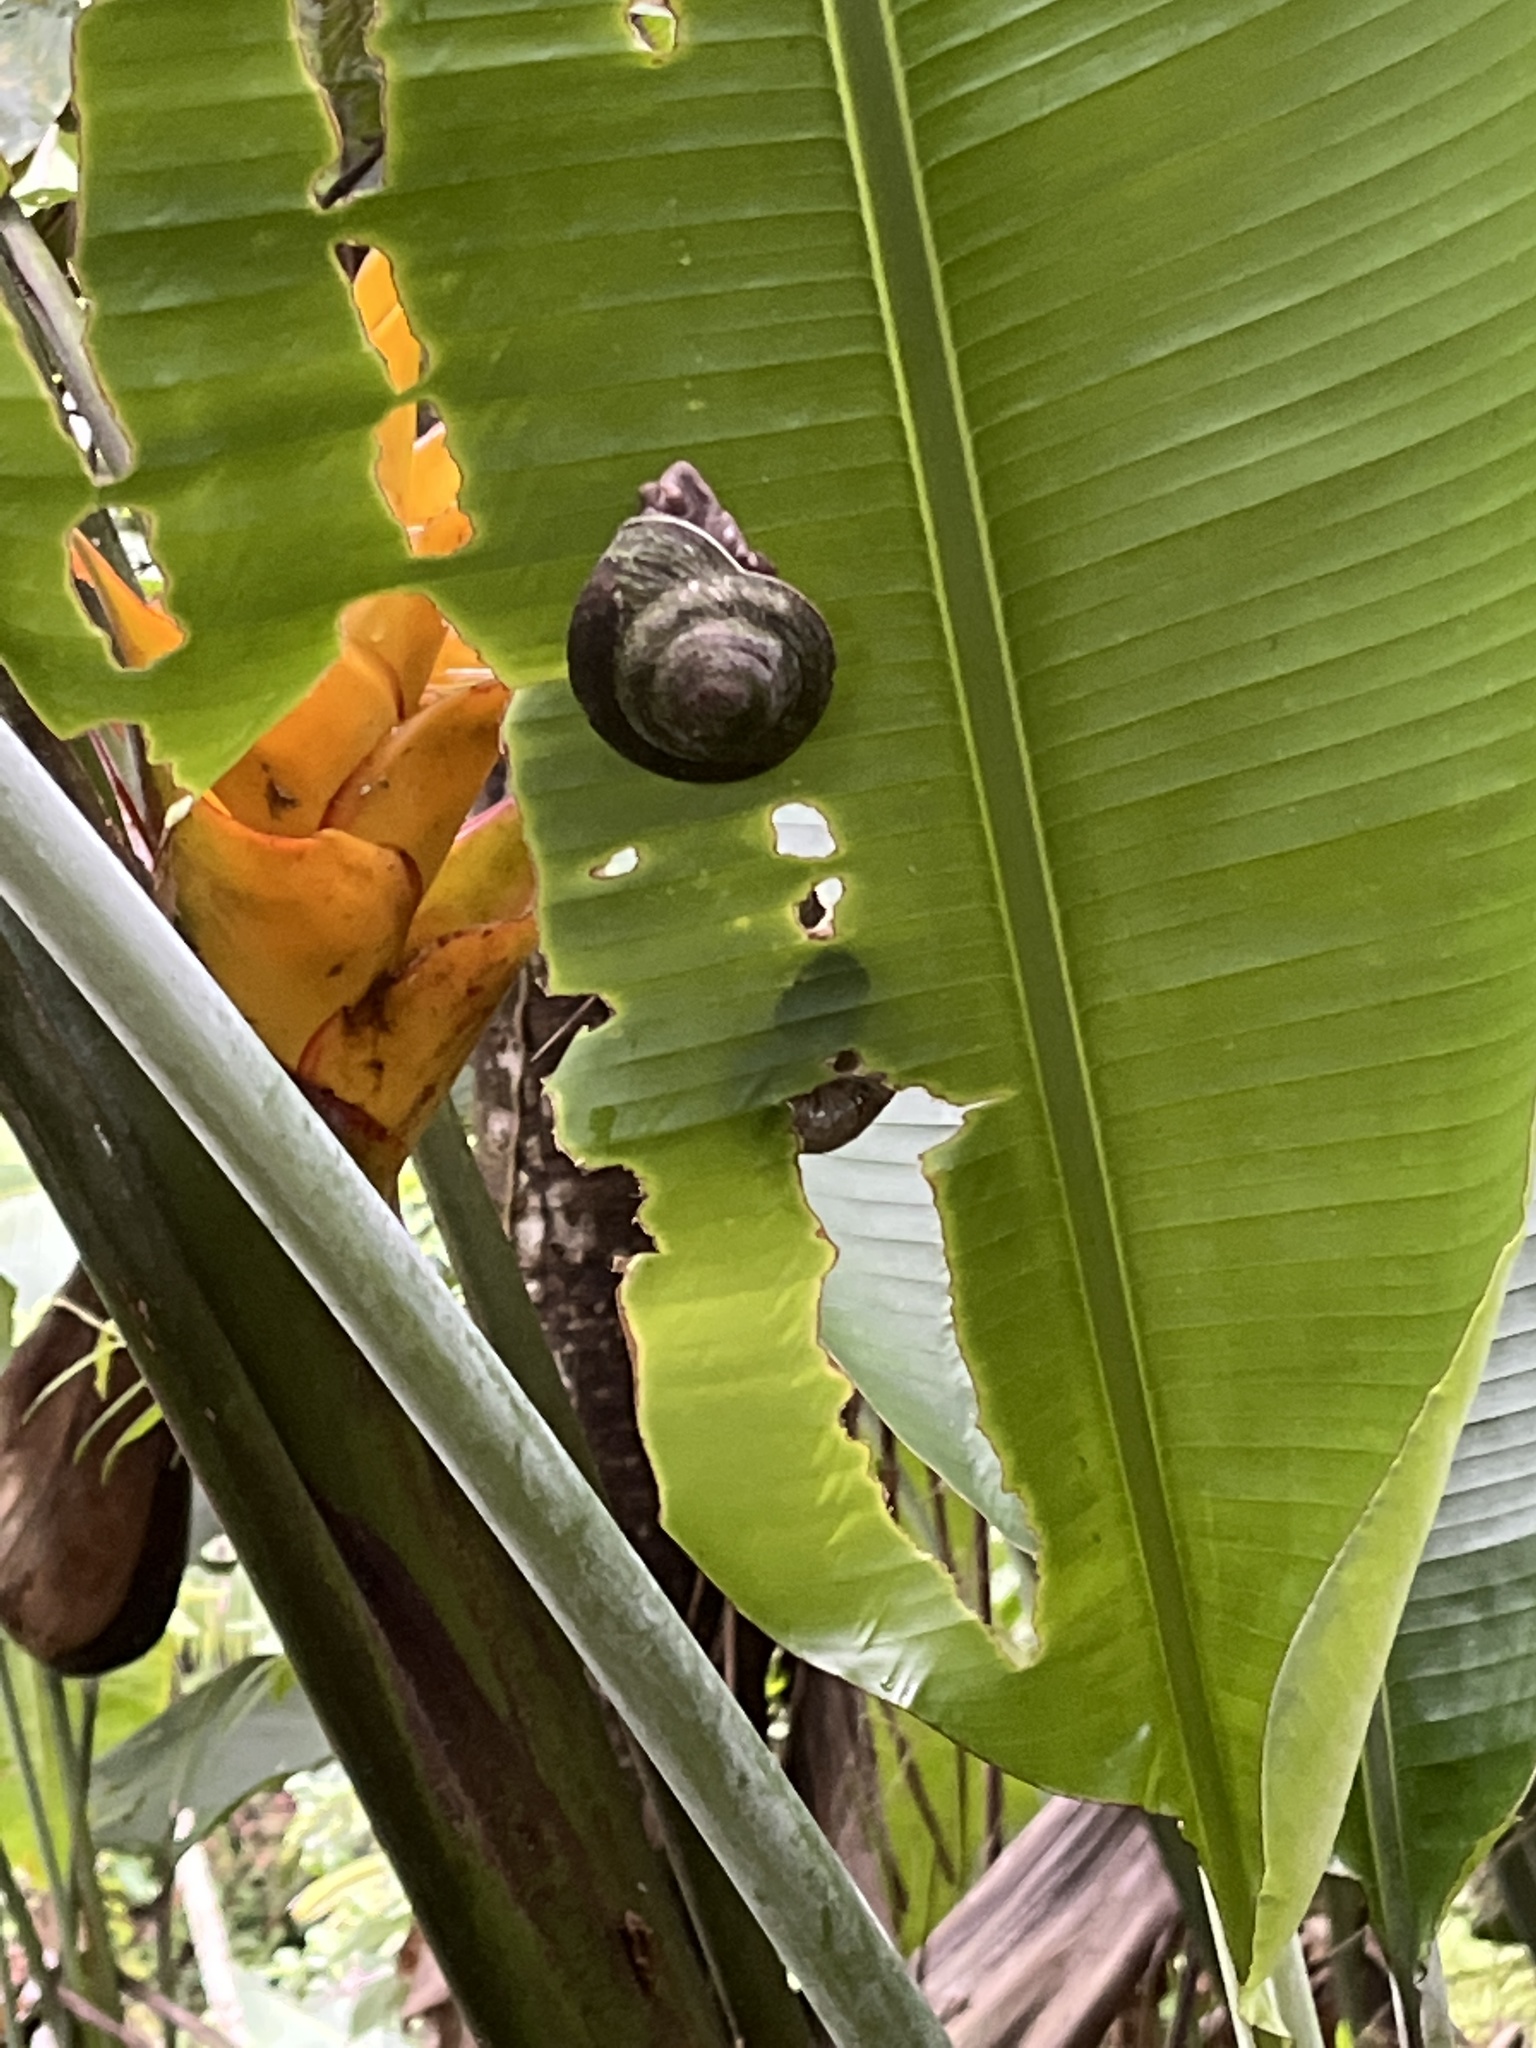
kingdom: Animalia
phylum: Mollusca
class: Gastropoda
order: Stylommatophora
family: Solaropsidae
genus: Caracolus
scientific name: Caracolus carocolla
